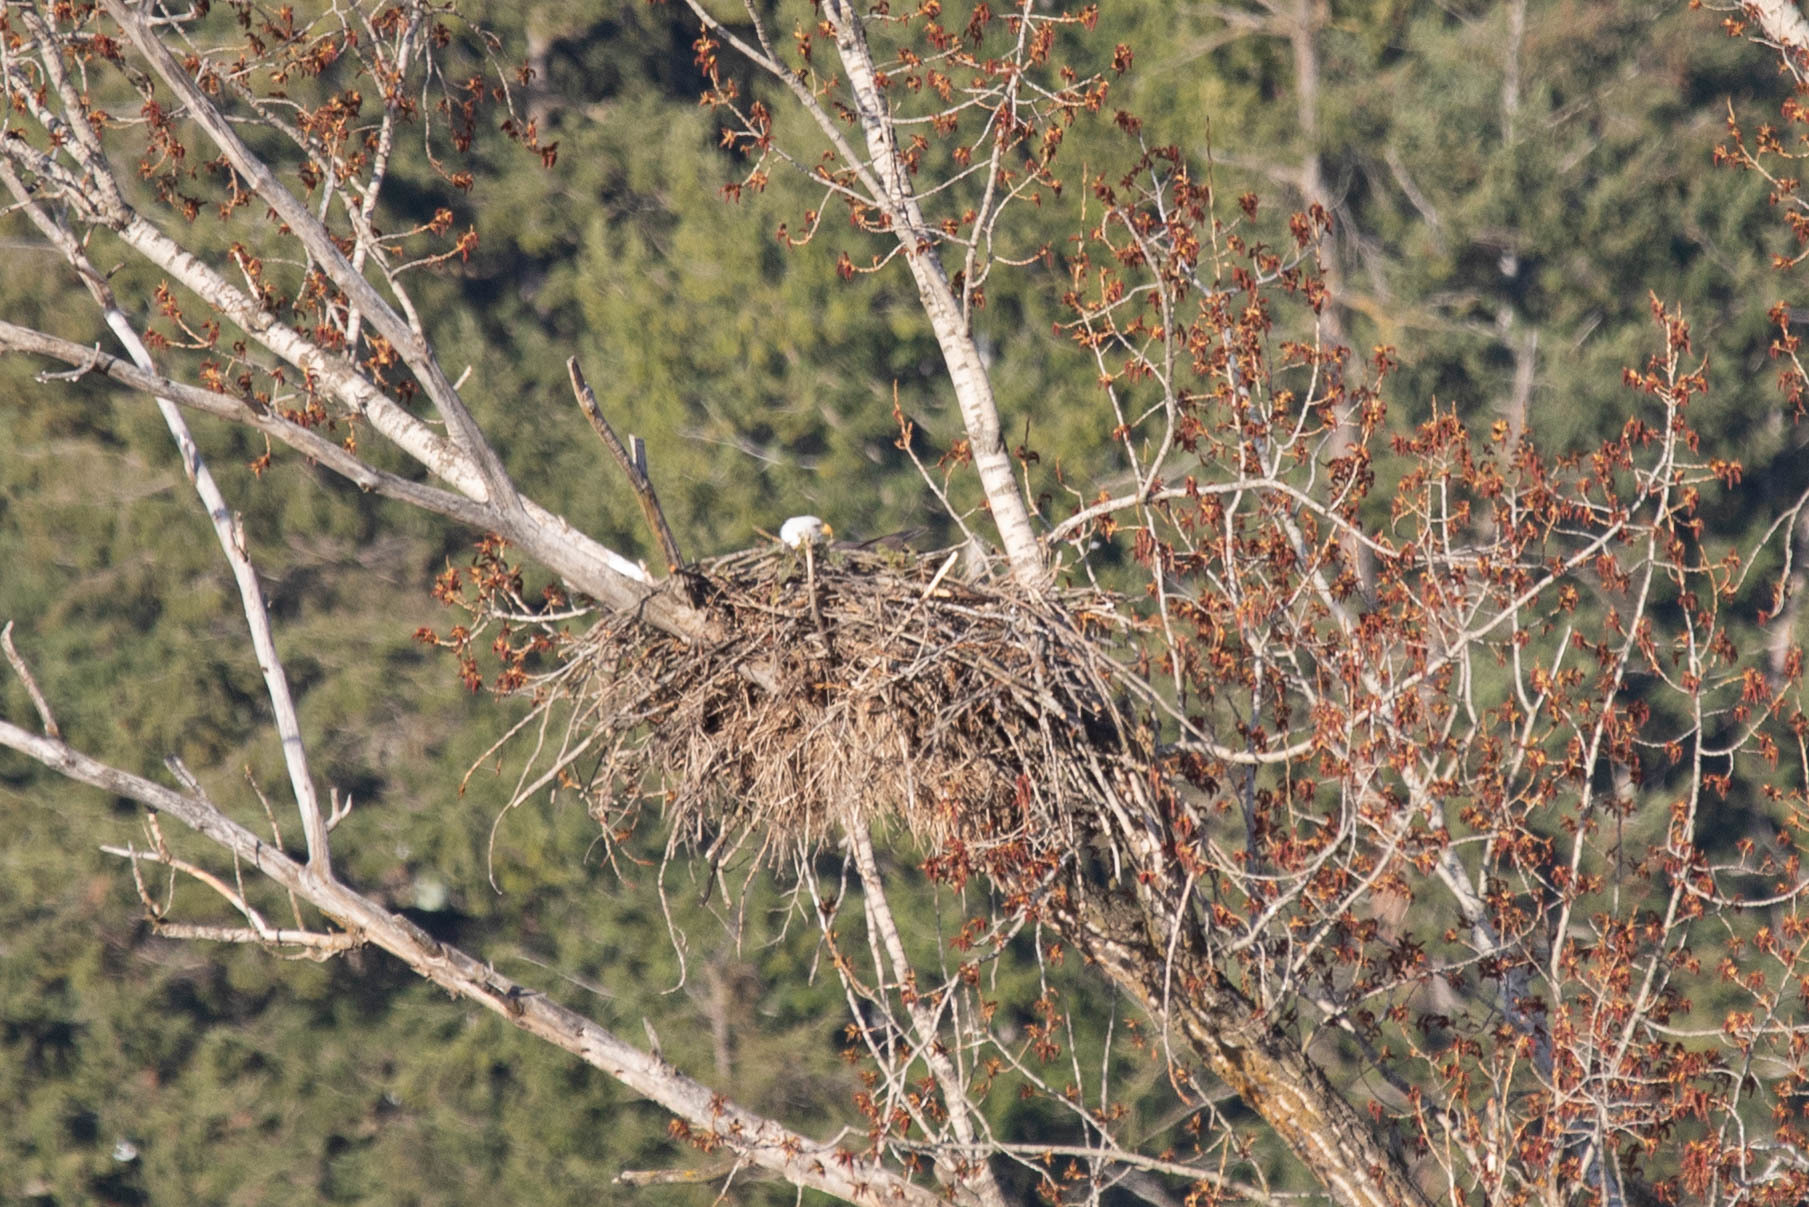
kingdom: Animalia
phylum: Chordata
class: Aves
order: Accipitriformes
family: Accipitridae
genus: Haliaeetus
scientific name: Haliaeetus leucocephalus
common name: Bald eagle
